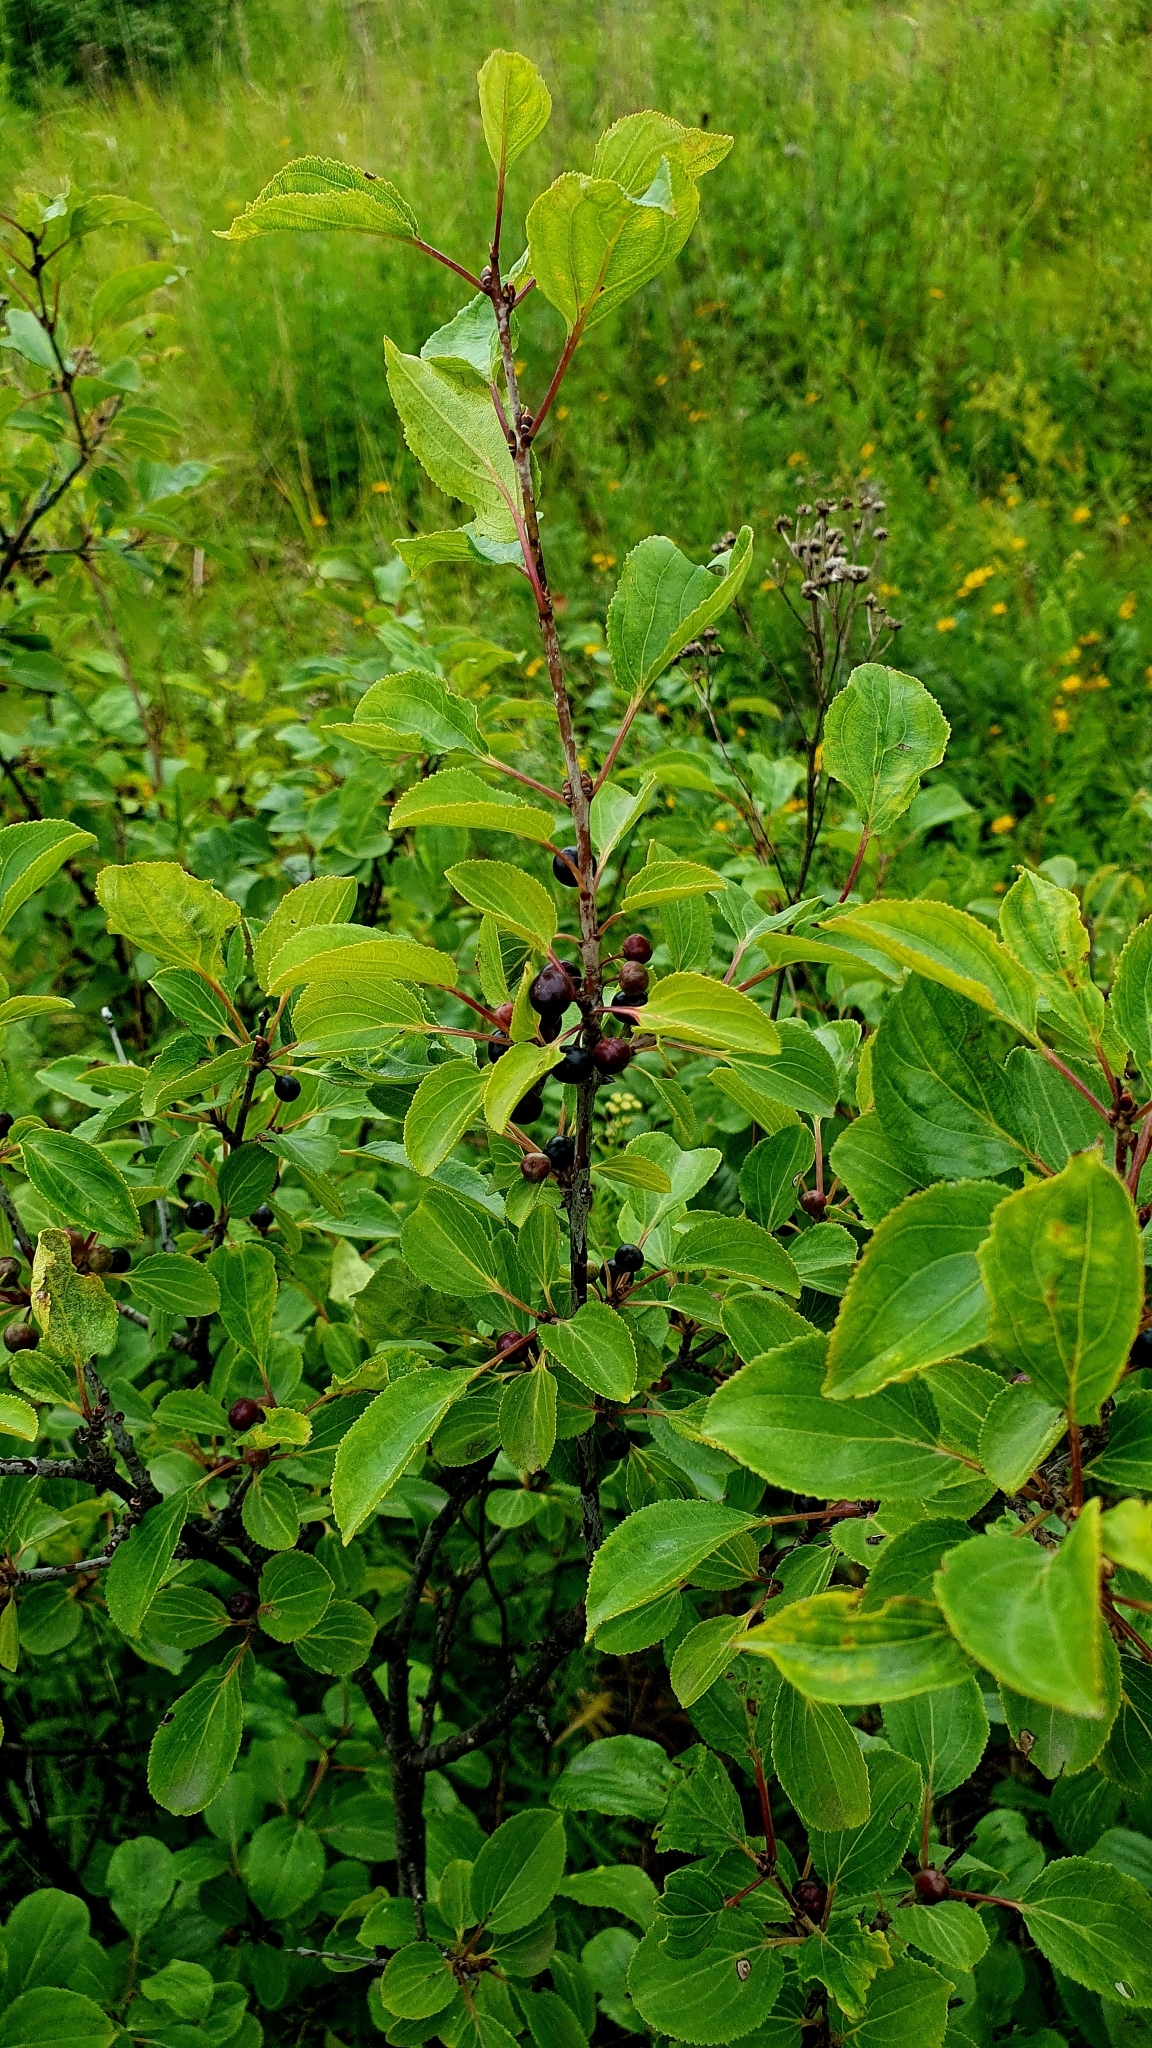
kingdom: Plantae
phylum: Tracheophyta
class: Magnoliopsida
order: Rosales
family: Rhamnaceae
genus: Rhamnus
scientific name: Rhamnus cathartica
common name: Common buckthorn
